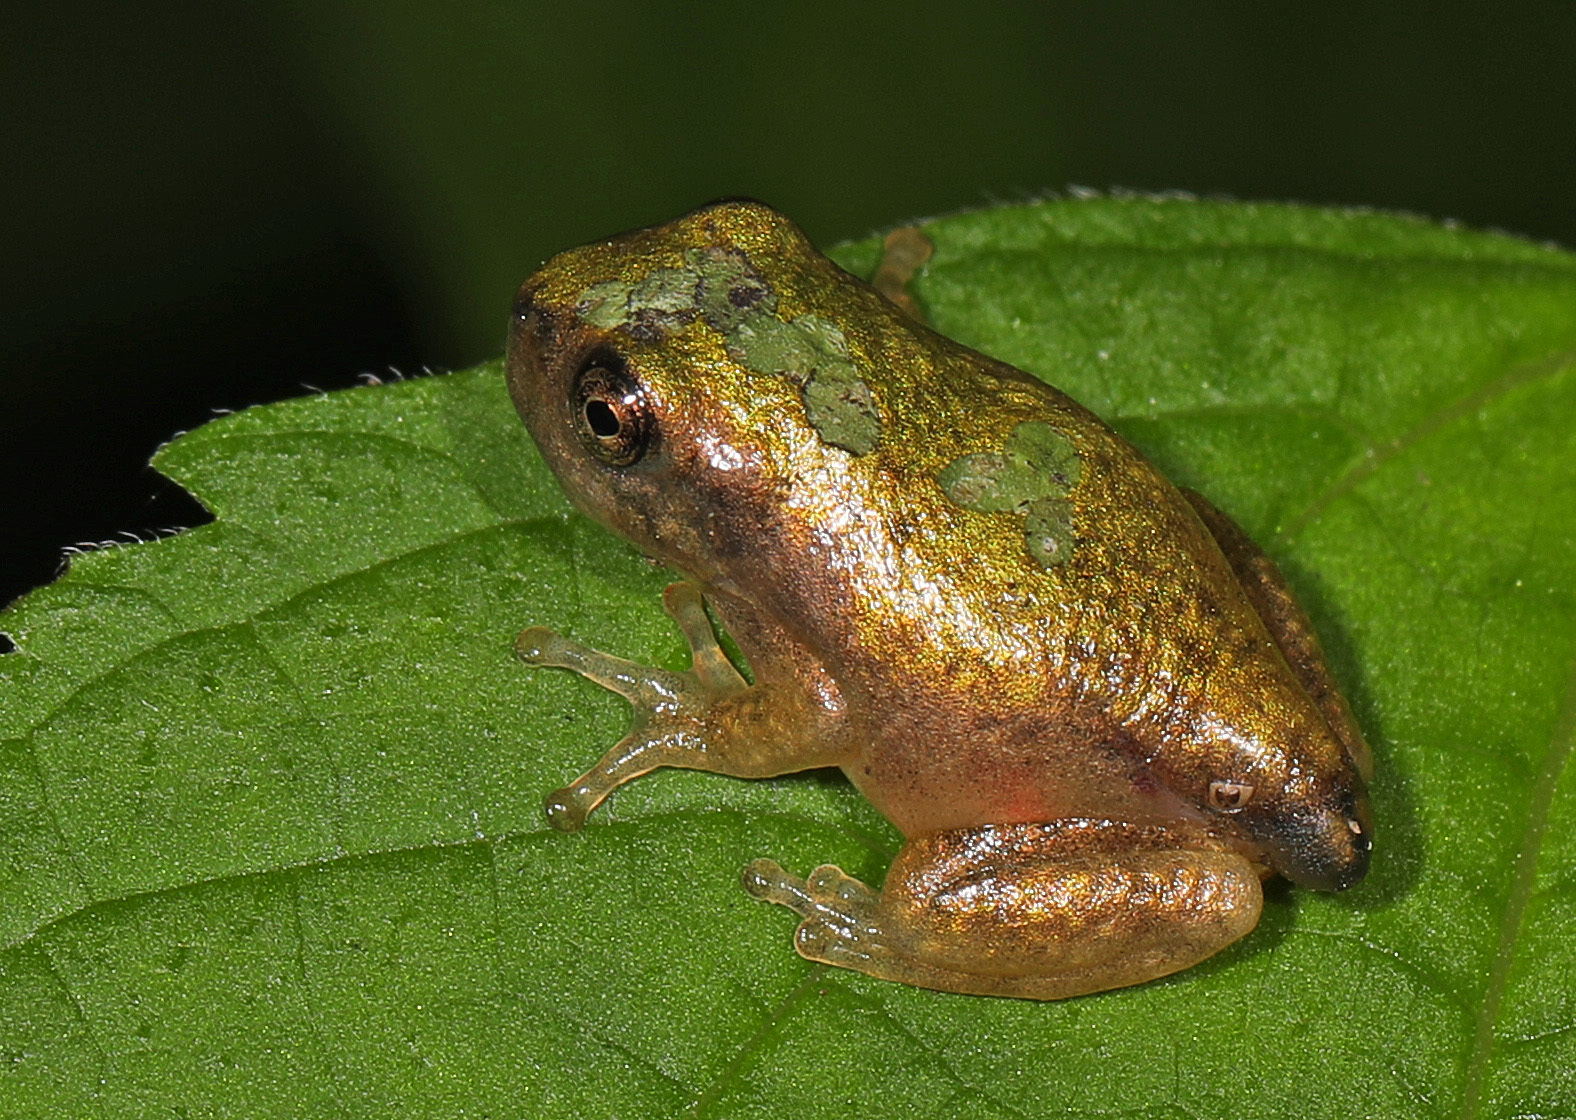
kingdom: Animalia
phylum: Chordata
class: Amphibia
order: Anura
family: Hylidae
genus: Hyla
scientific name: Hyla
